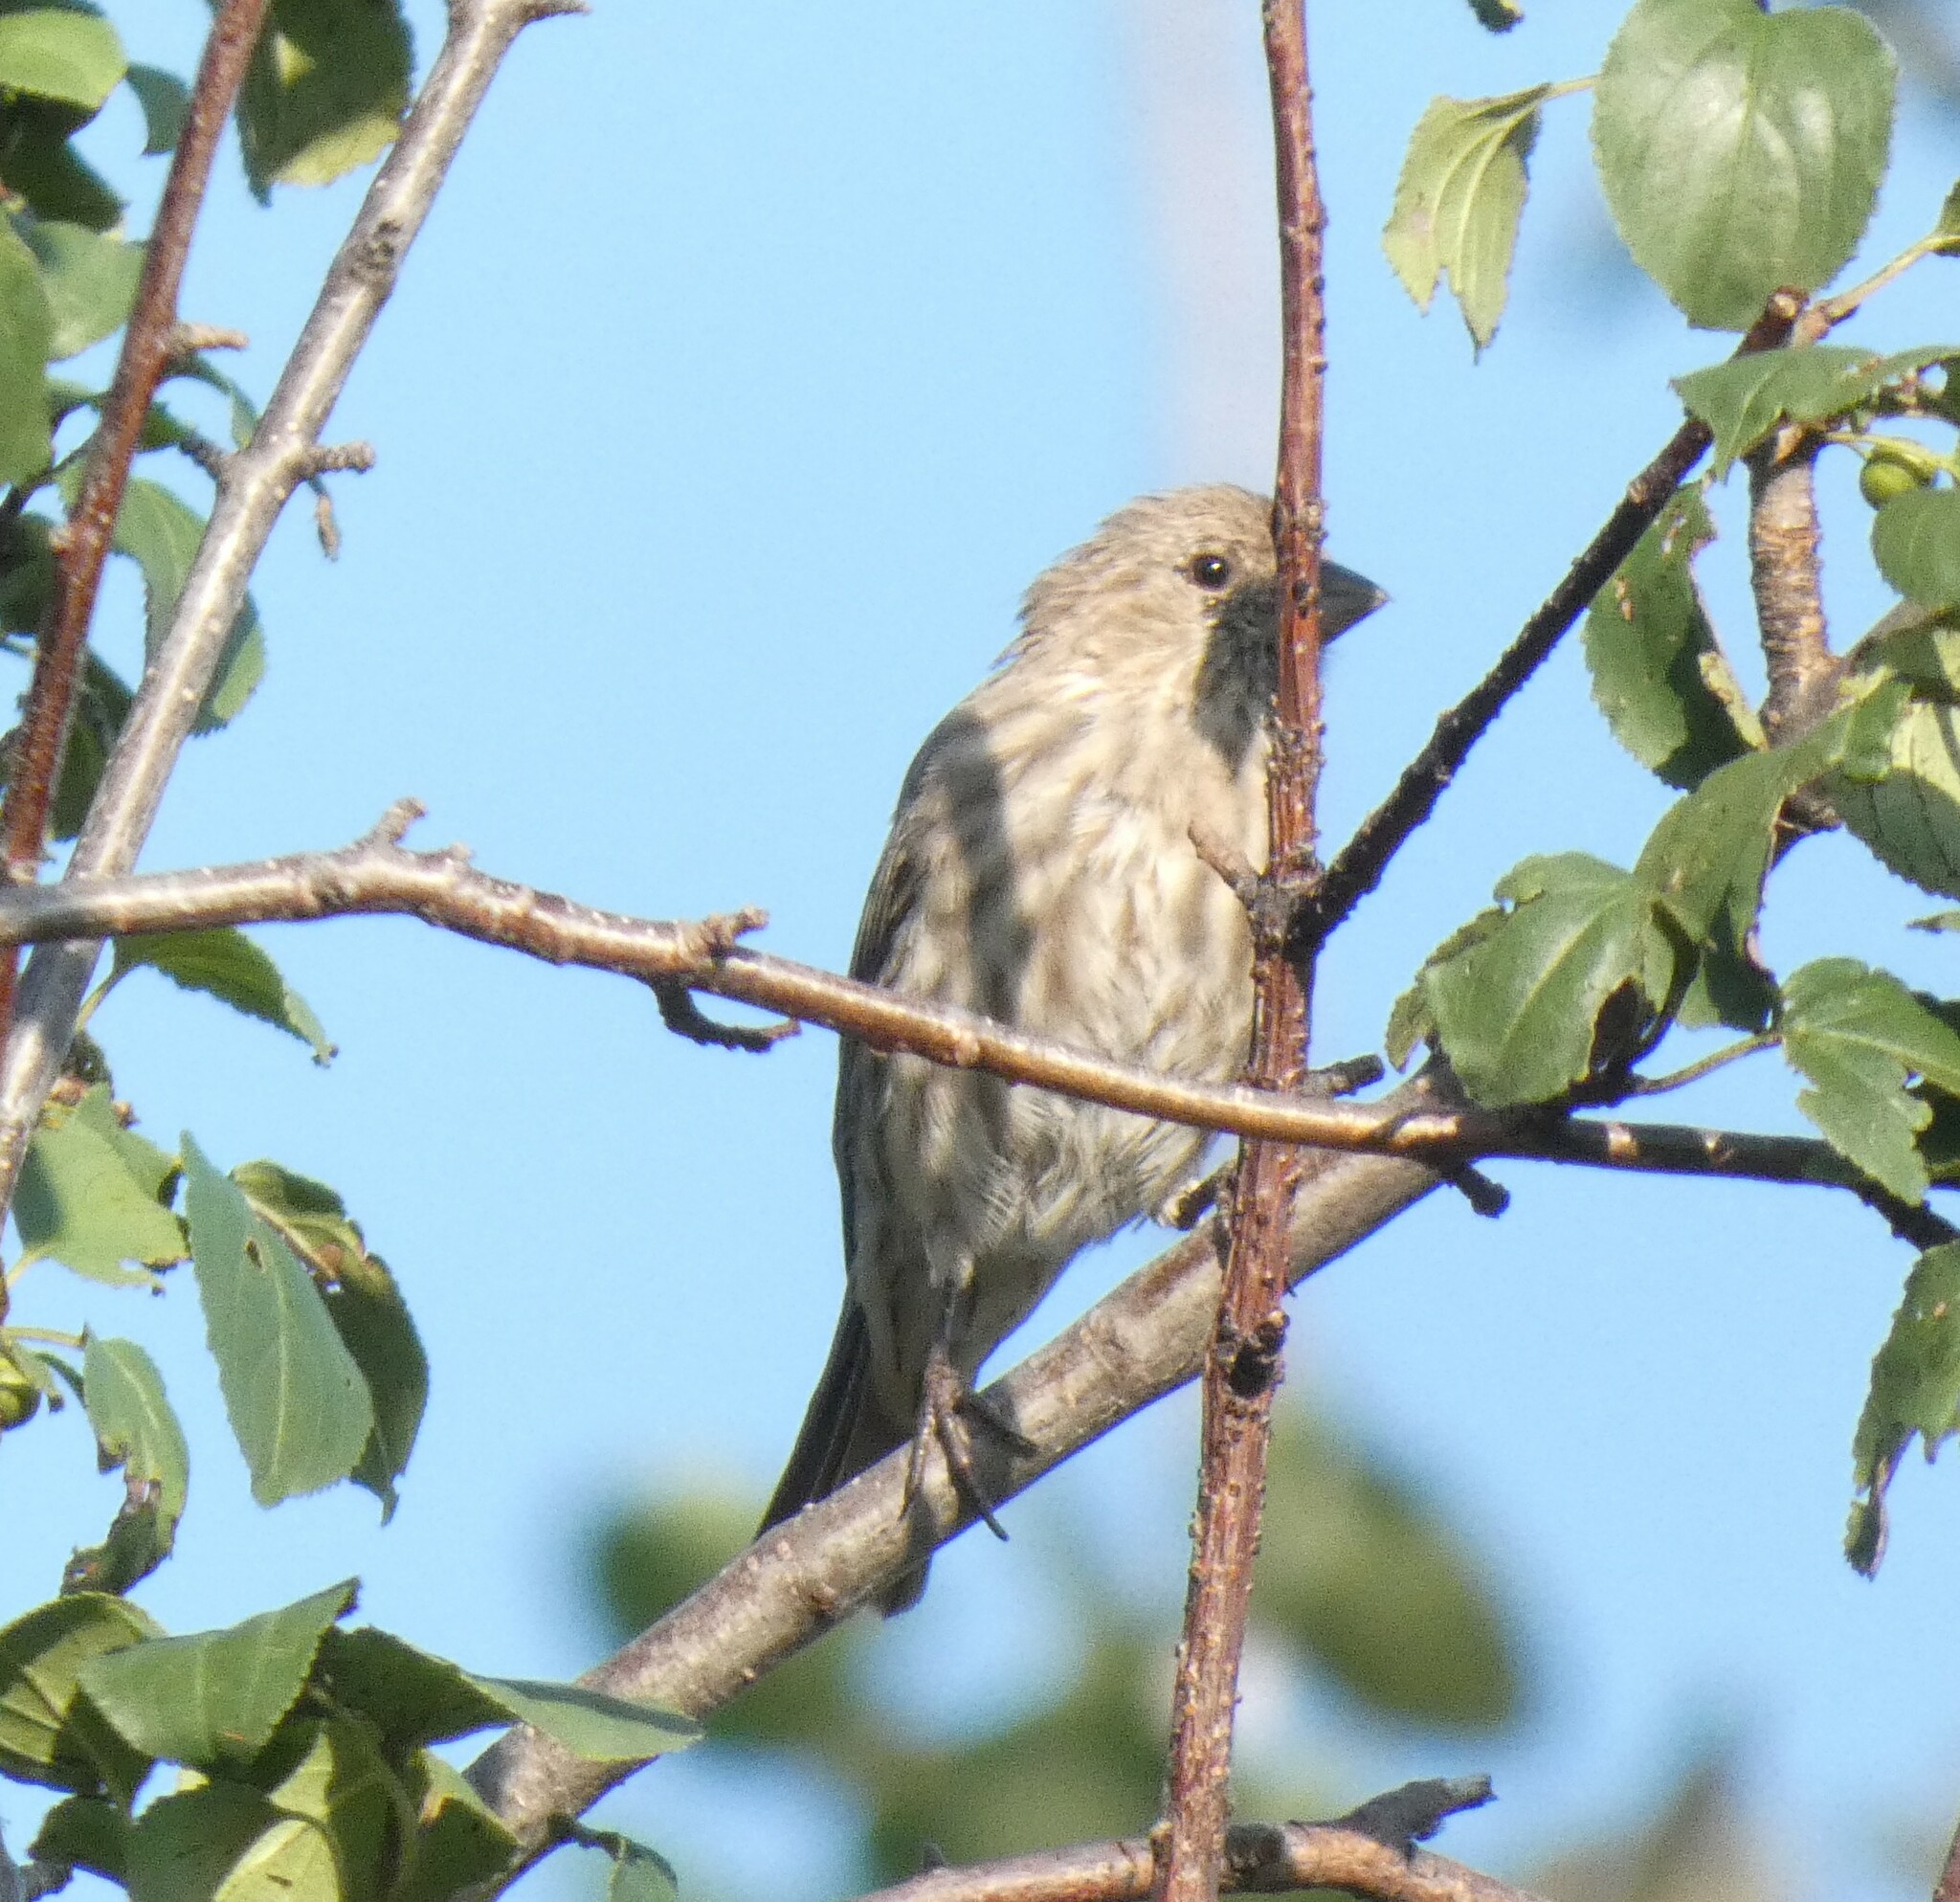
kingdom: Animalia
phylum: Chordata
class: Aves
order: Passeriformes
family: Fringillidae
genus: Haemorhous
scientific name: Haemorhous mexicanus
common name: House finch
